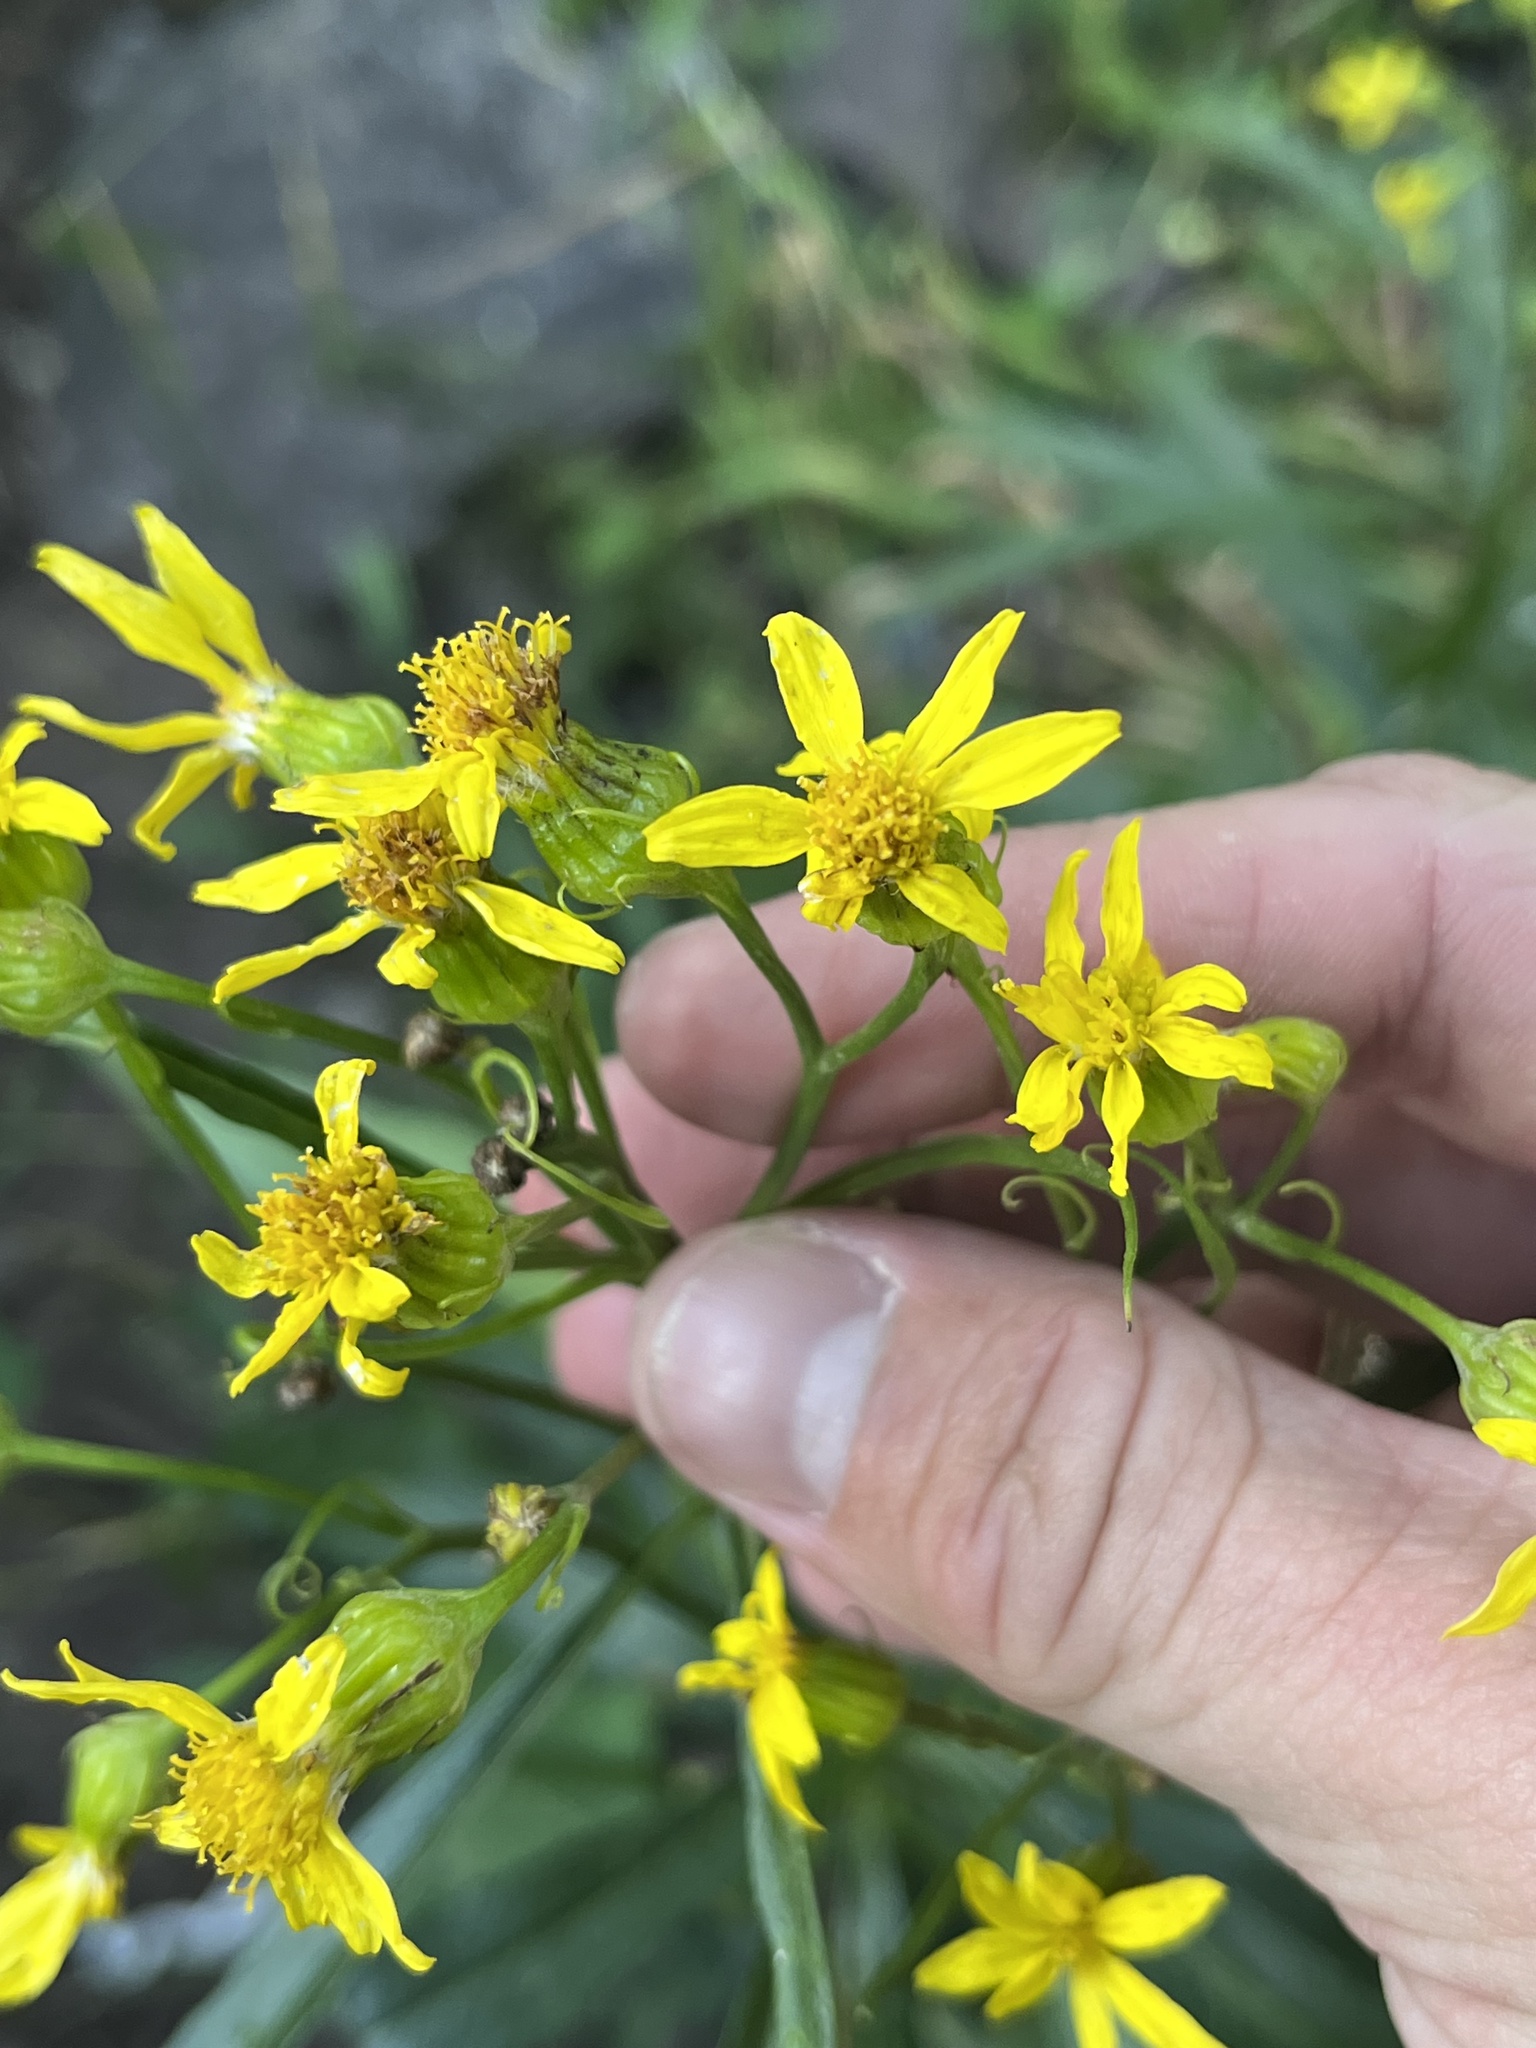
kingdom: Plantae
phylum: Tracheophyta
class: Magnoliopsida
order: Asterales
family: Asteraceae
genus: Senecio
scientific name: Senecio serra
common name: Tall ragwort
